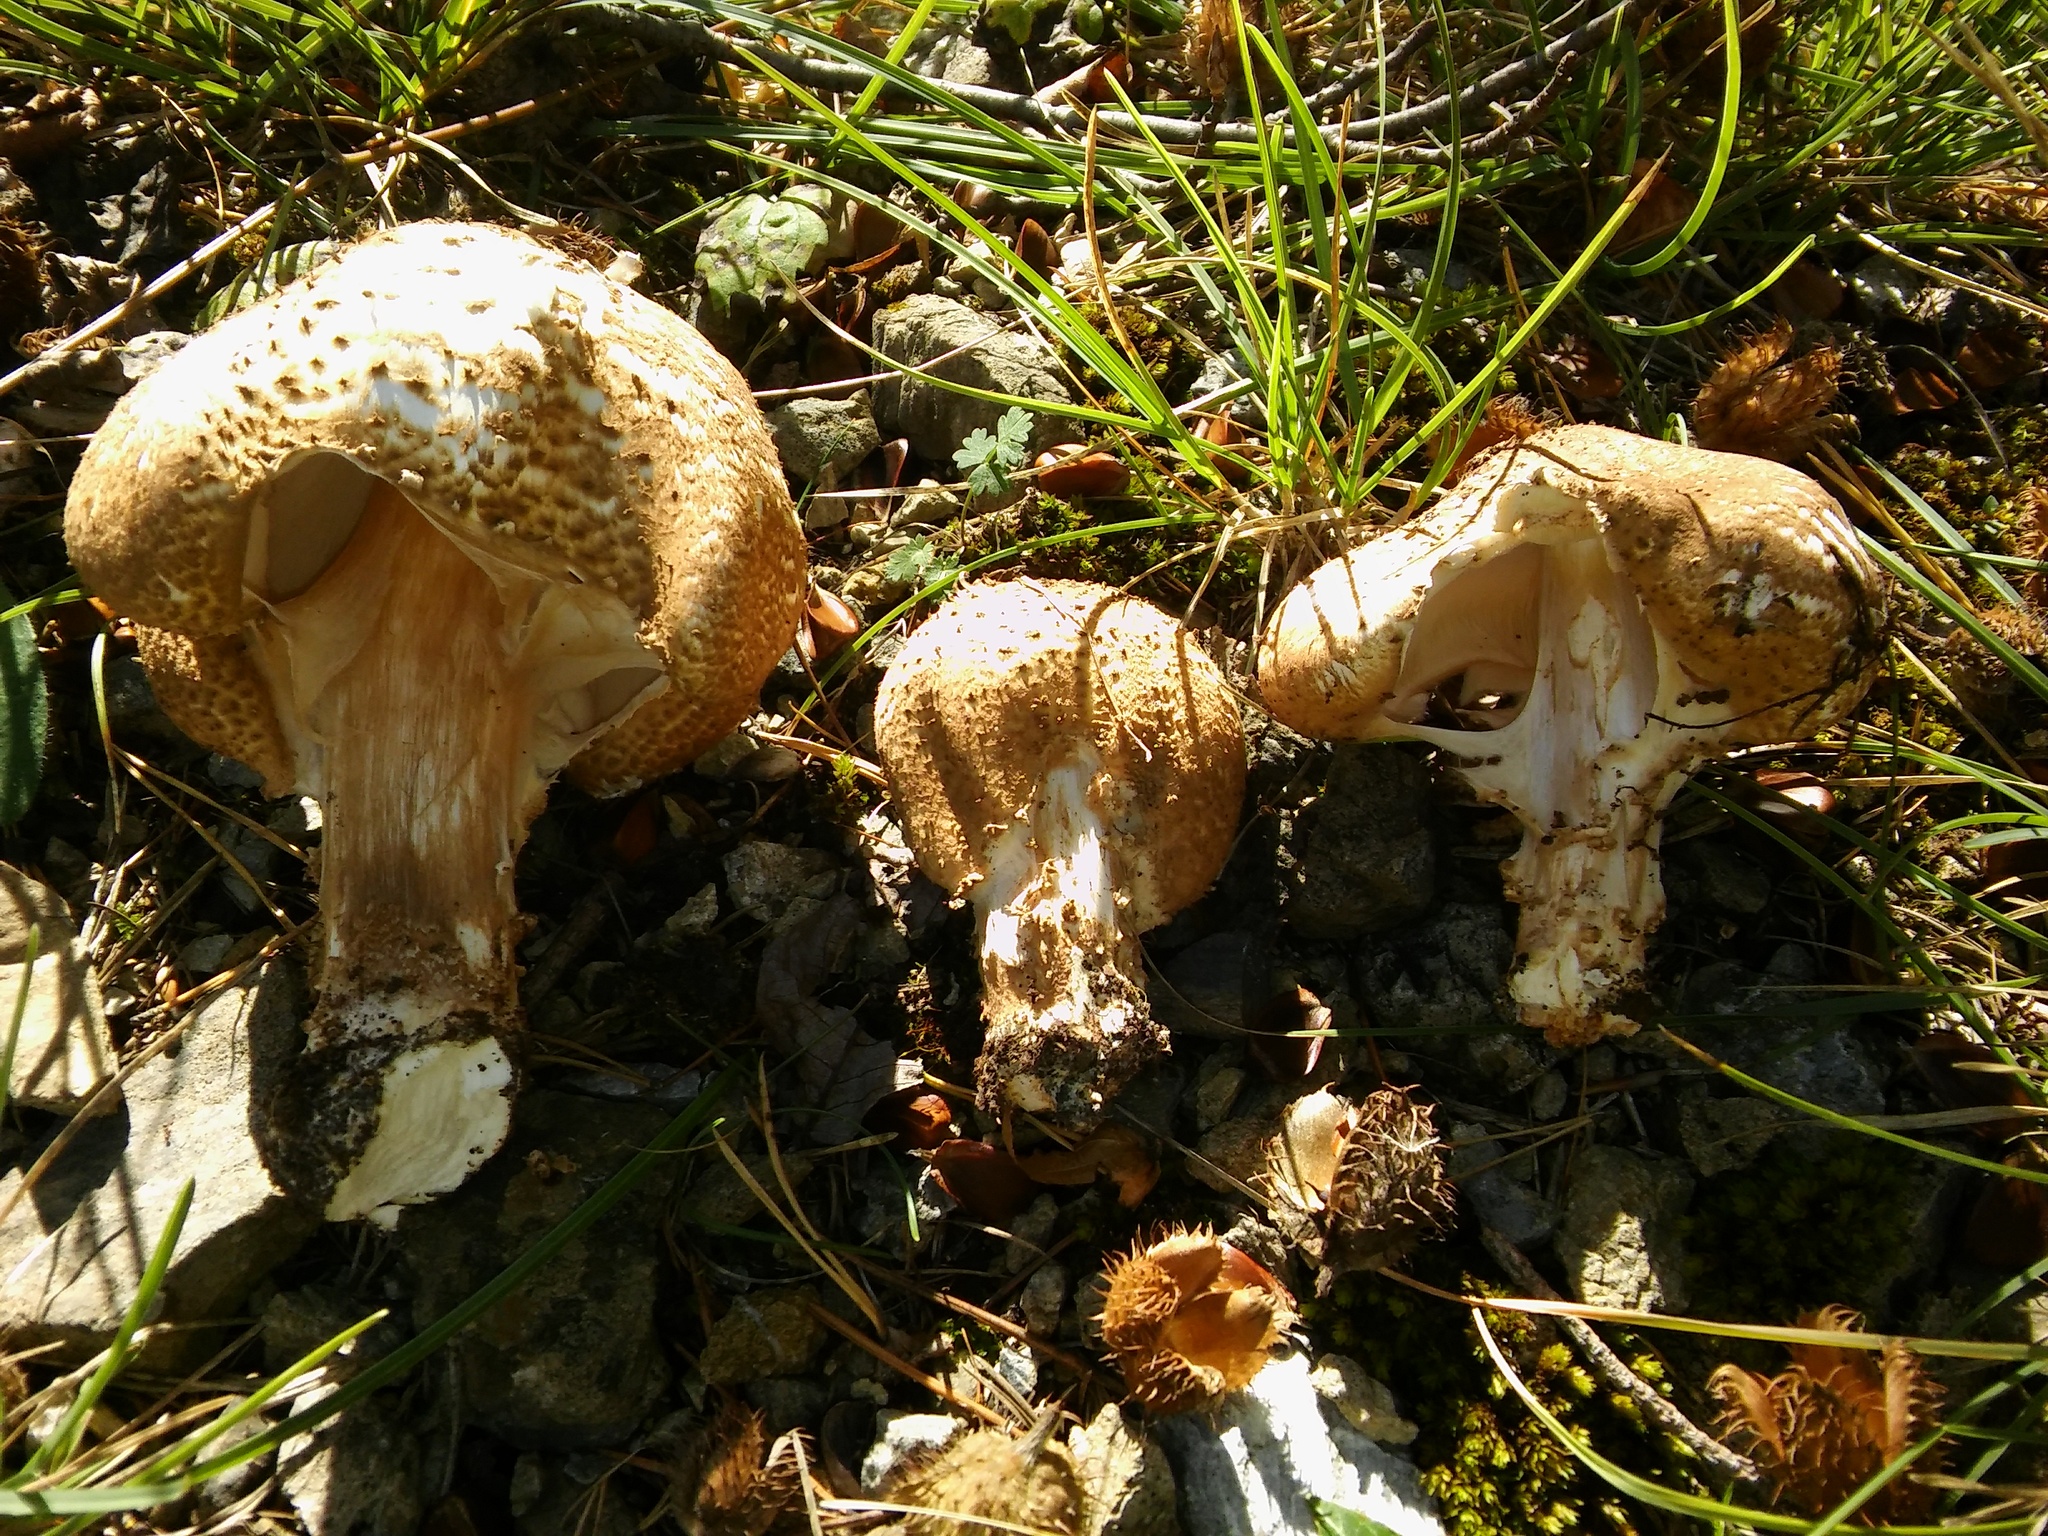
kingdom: Fungi
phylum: Basidiomycota
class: Agaricomycetes
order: Agaricales
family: Agaricaceae
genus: Echinoderma
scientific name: Echinoderma asperum
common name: Freckled dapperling
